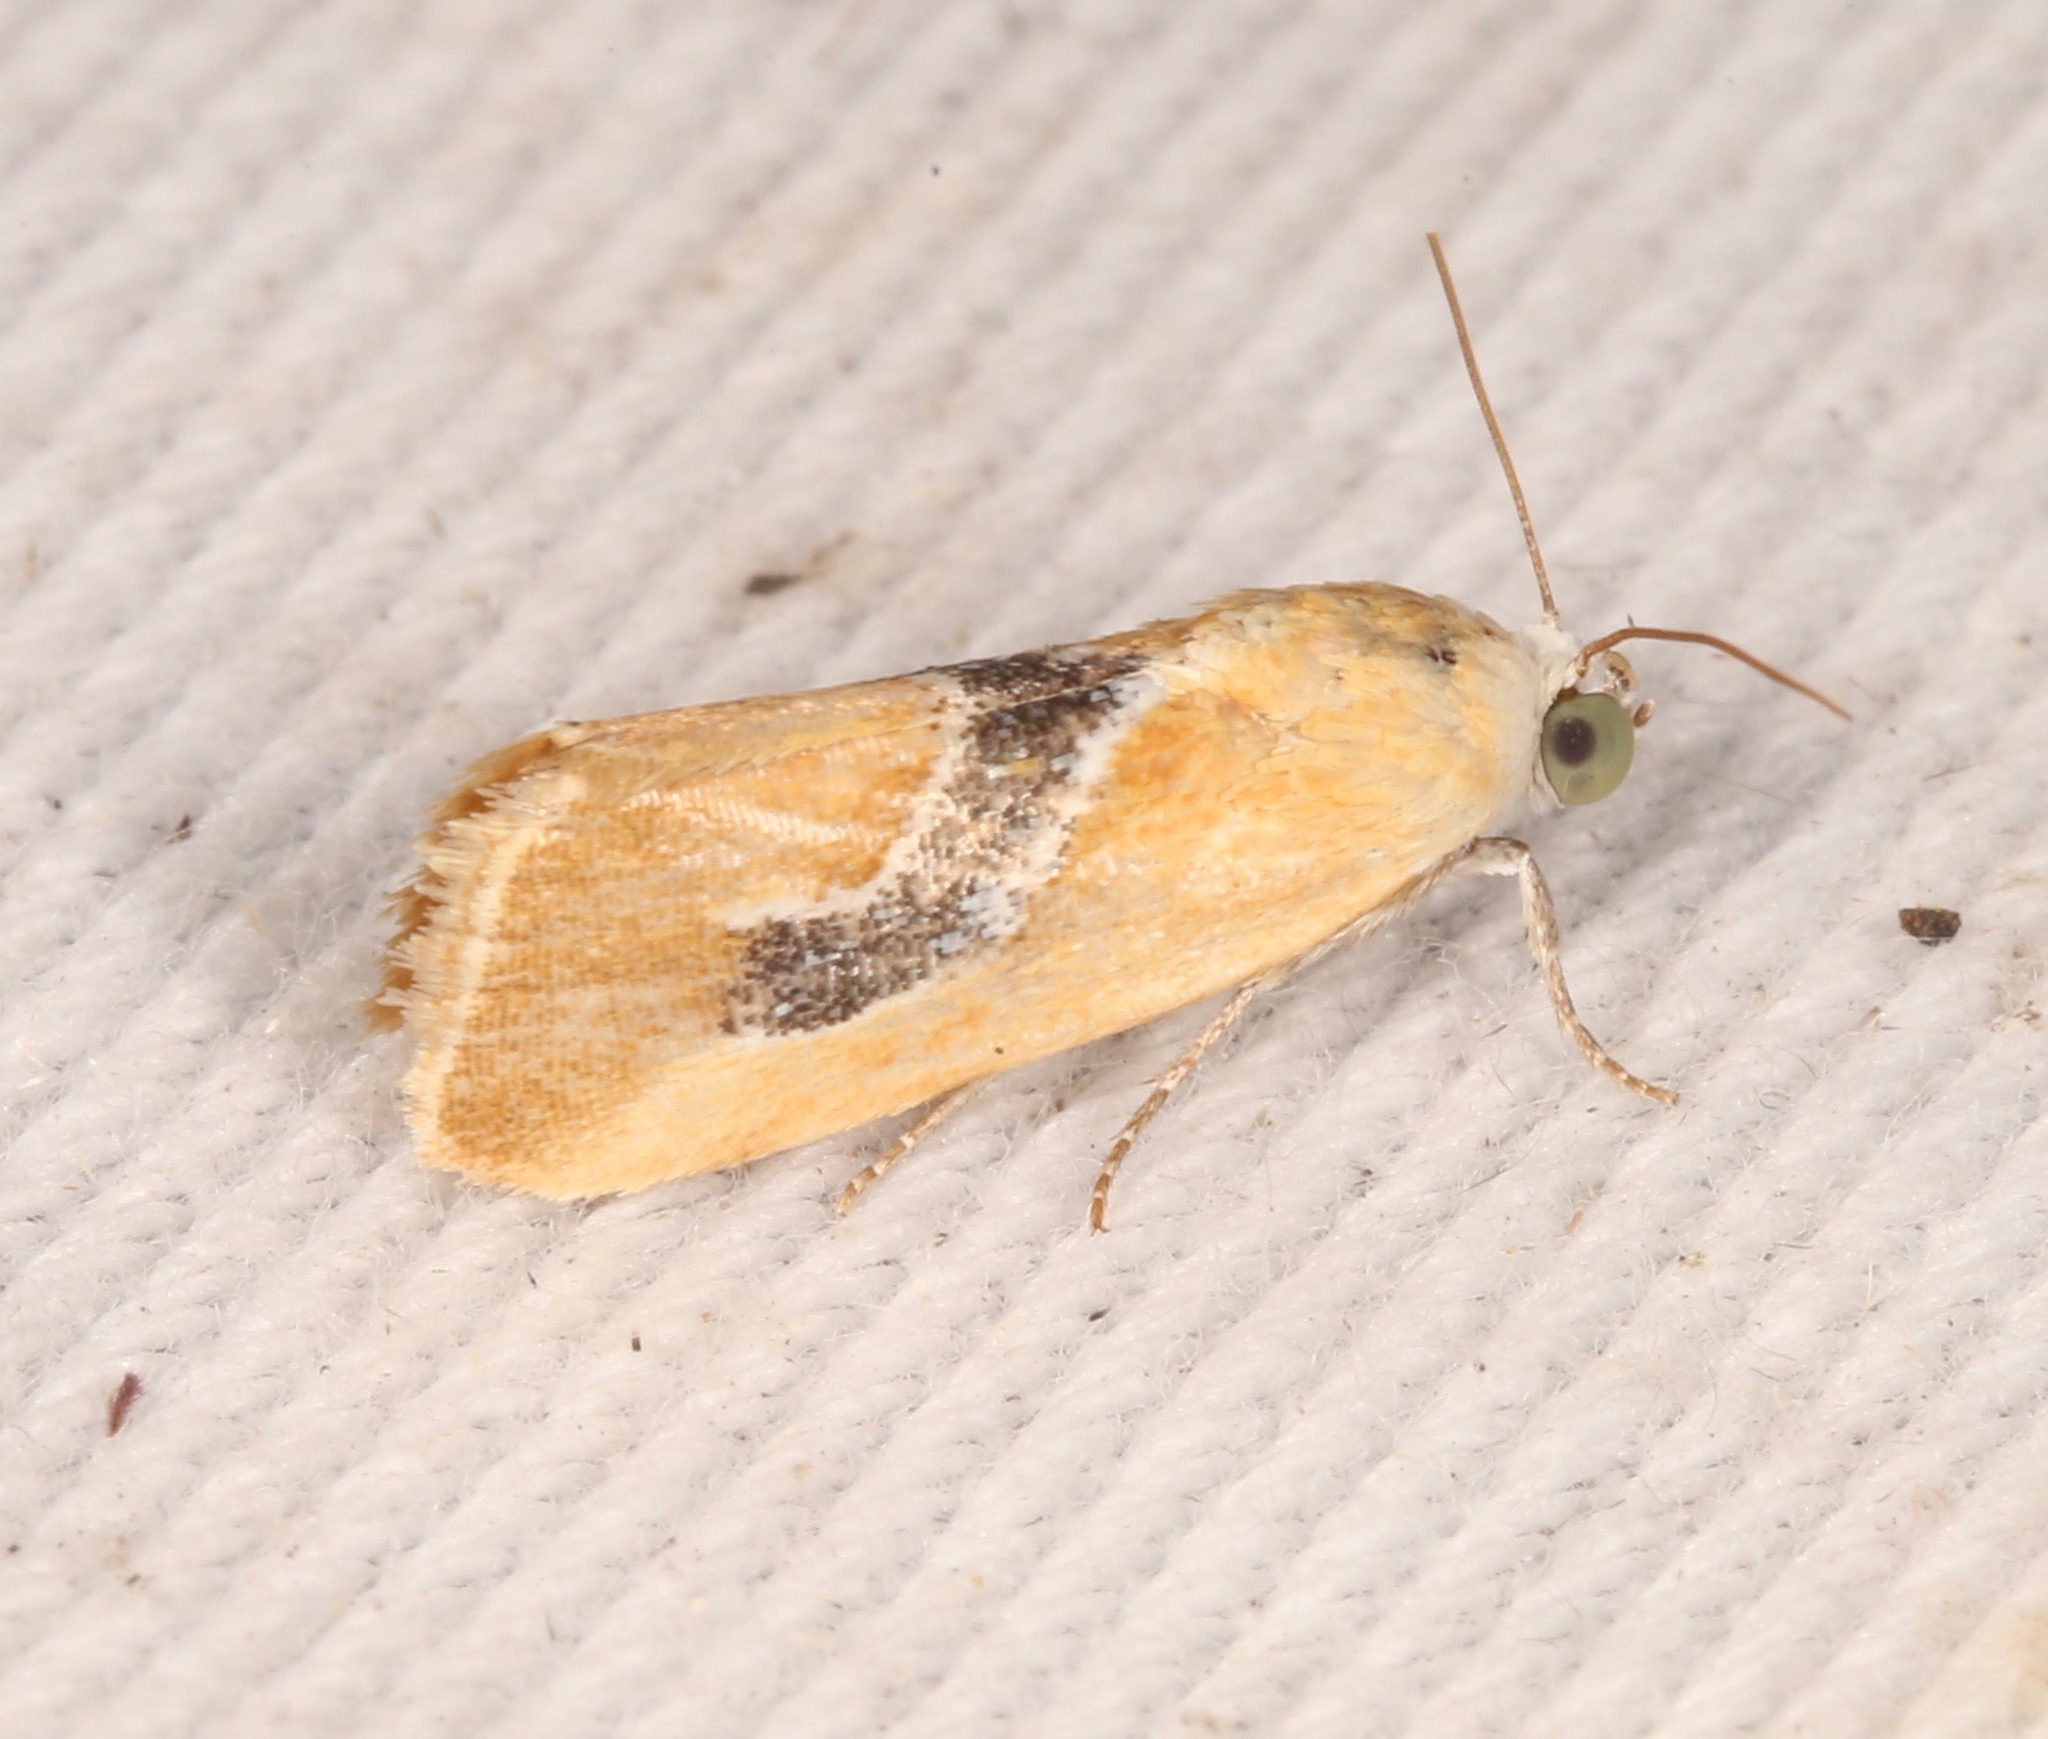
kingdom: Animalia
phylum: Arthropoda
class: Insecta
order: Lepidoptera
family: Noctuidae
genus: Ponometia
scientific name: Ponometia venustula
